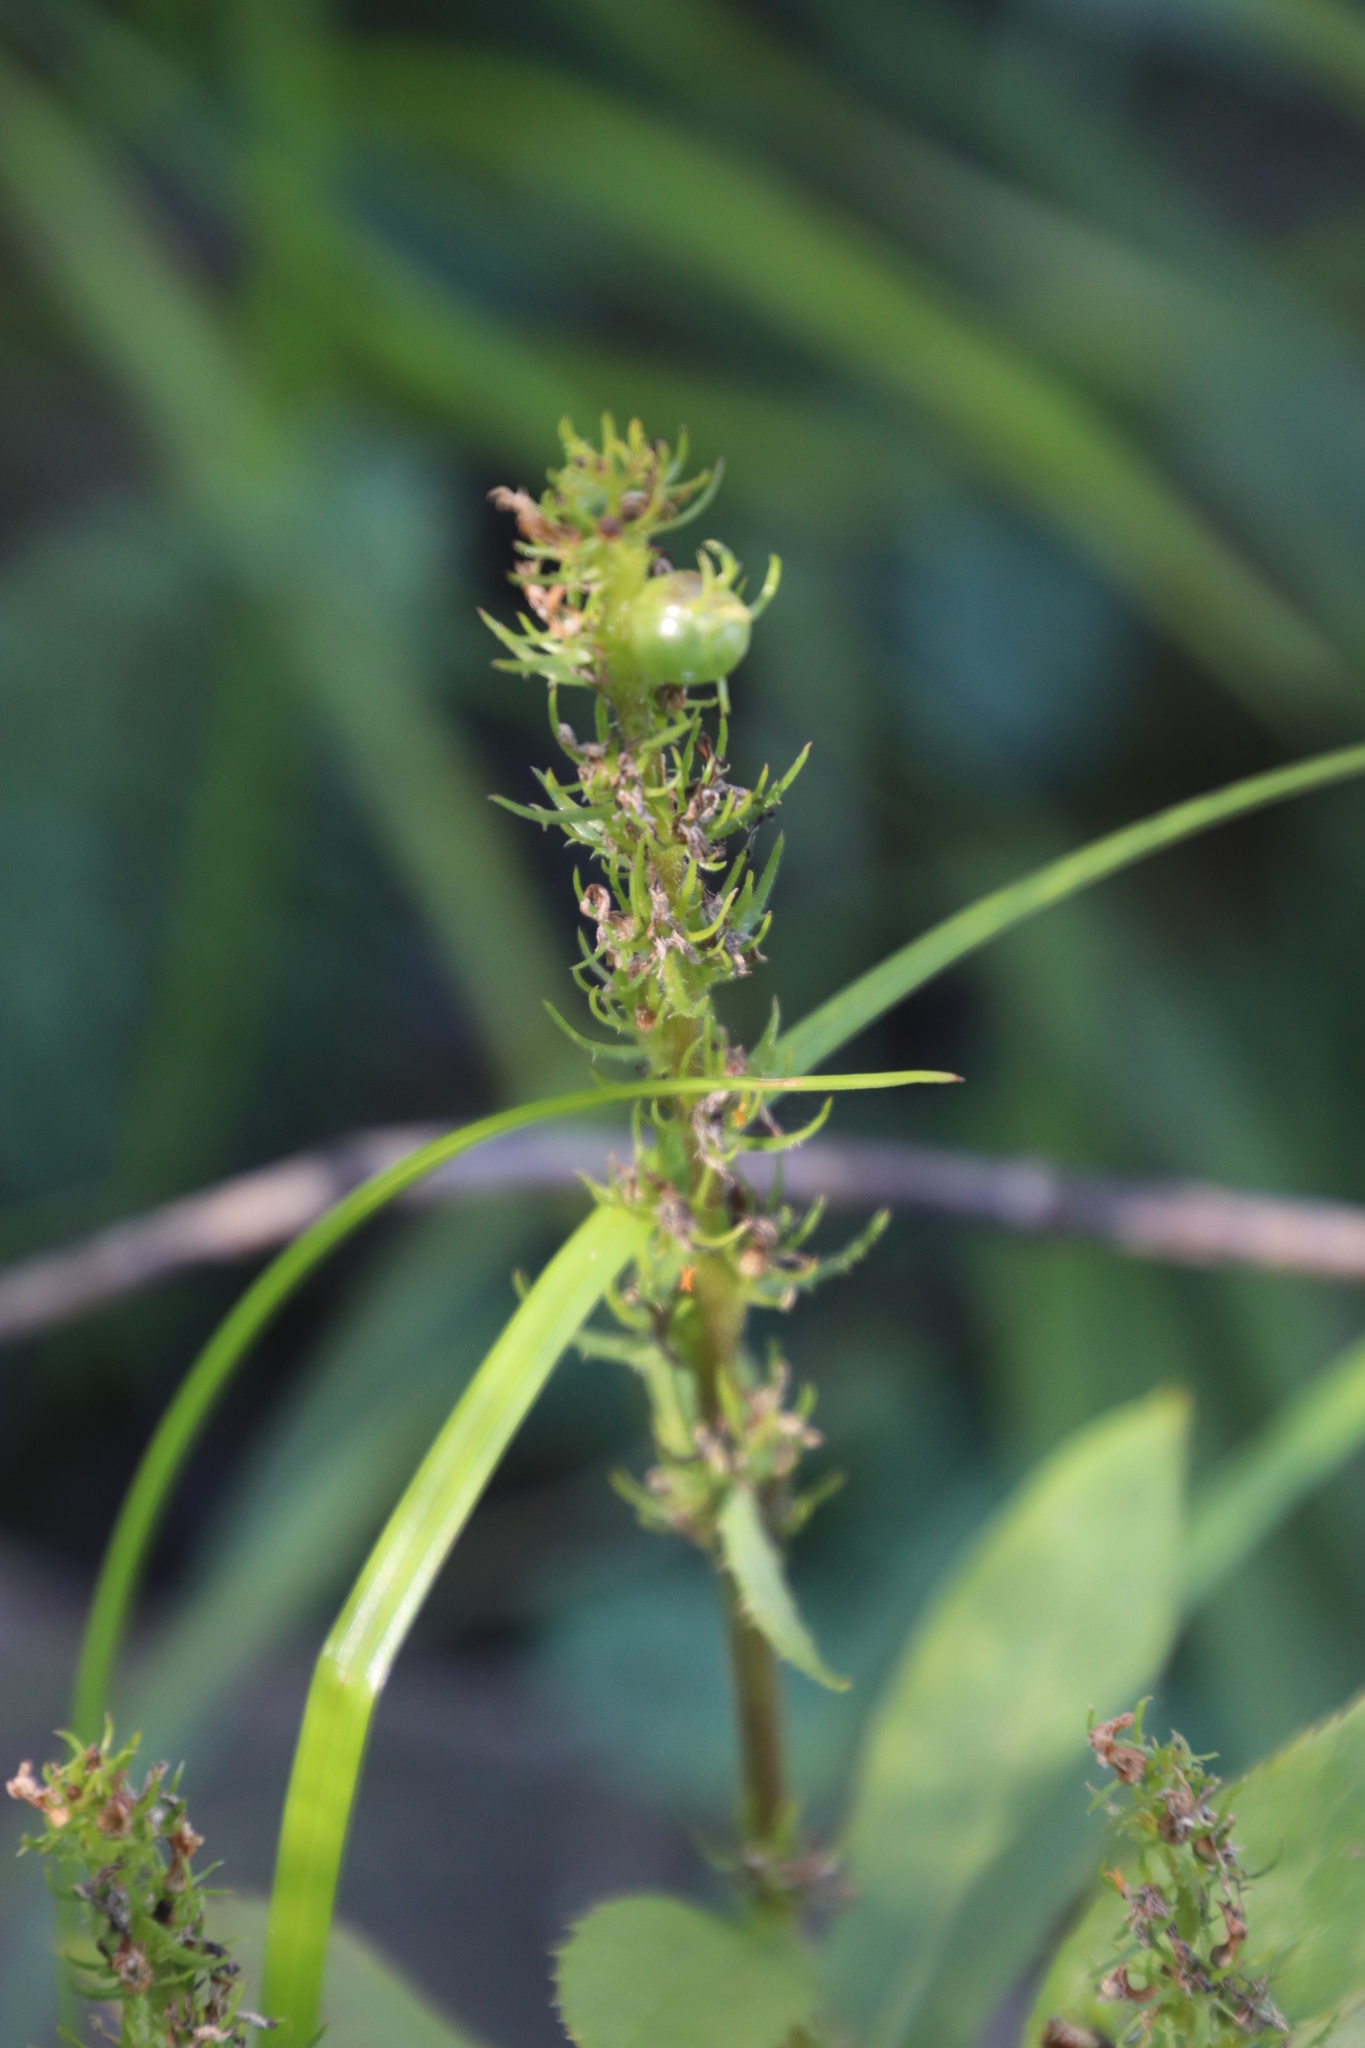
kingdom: Plantae
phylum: Tracheophyta
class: Magnoliopsida
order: Asterales
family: Campanulaceae
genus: Cyphia
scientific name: Cyphia elata
